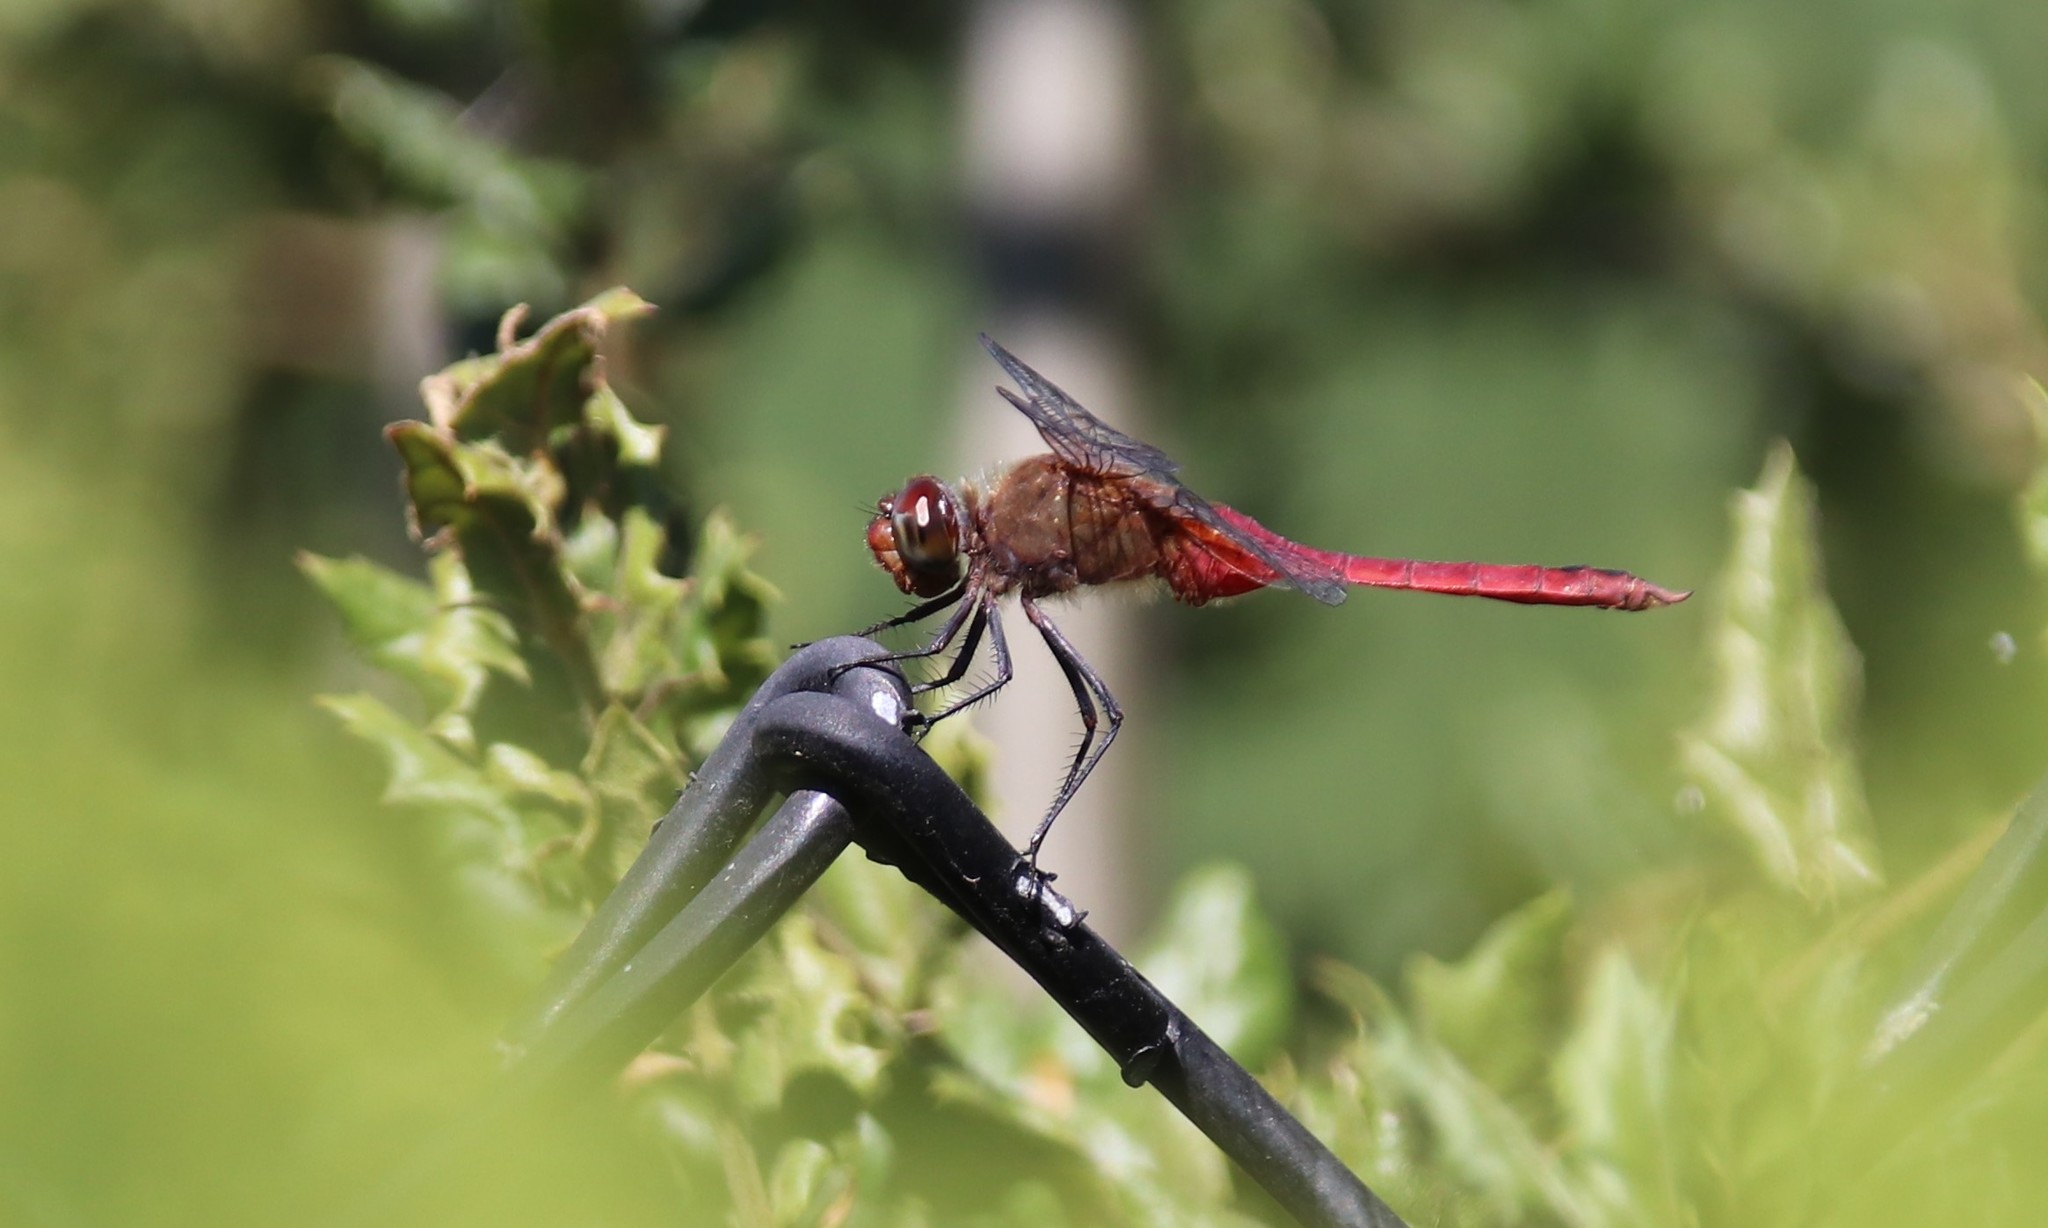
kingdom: Animalia
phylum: Arthropoda
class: Insecta
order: Odonata
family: Libellulidae
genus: Brachymesia
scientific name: Brachymesia furcata
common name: Red-taled pennant
